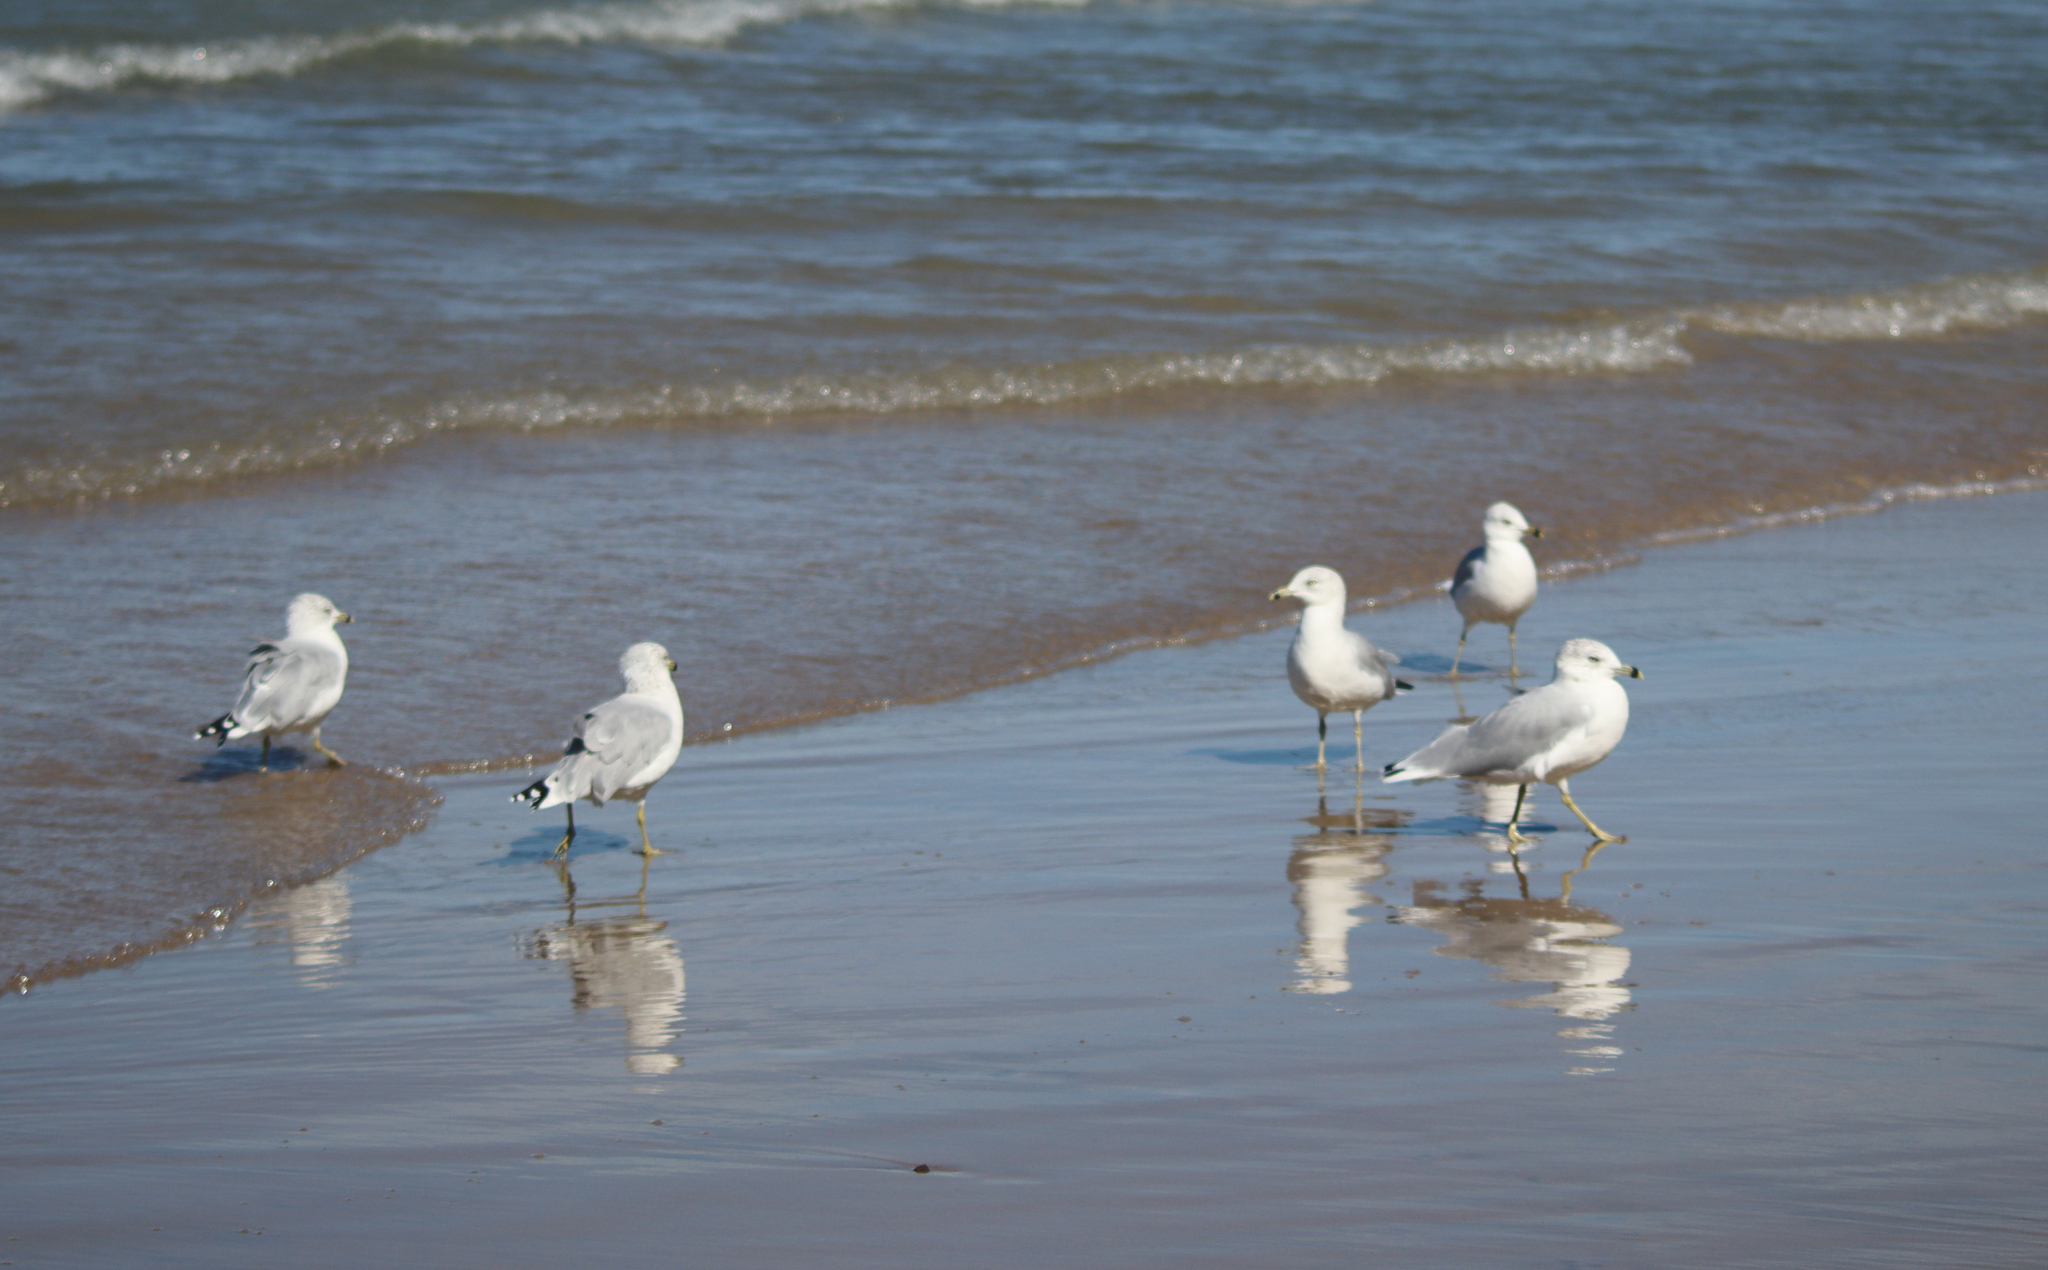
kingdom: Animalia
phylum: Chordata
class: Aves
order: Charadriiformes
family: Laridae
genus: Larus
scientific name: Larus delawarensis
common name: Ring-billed gull
